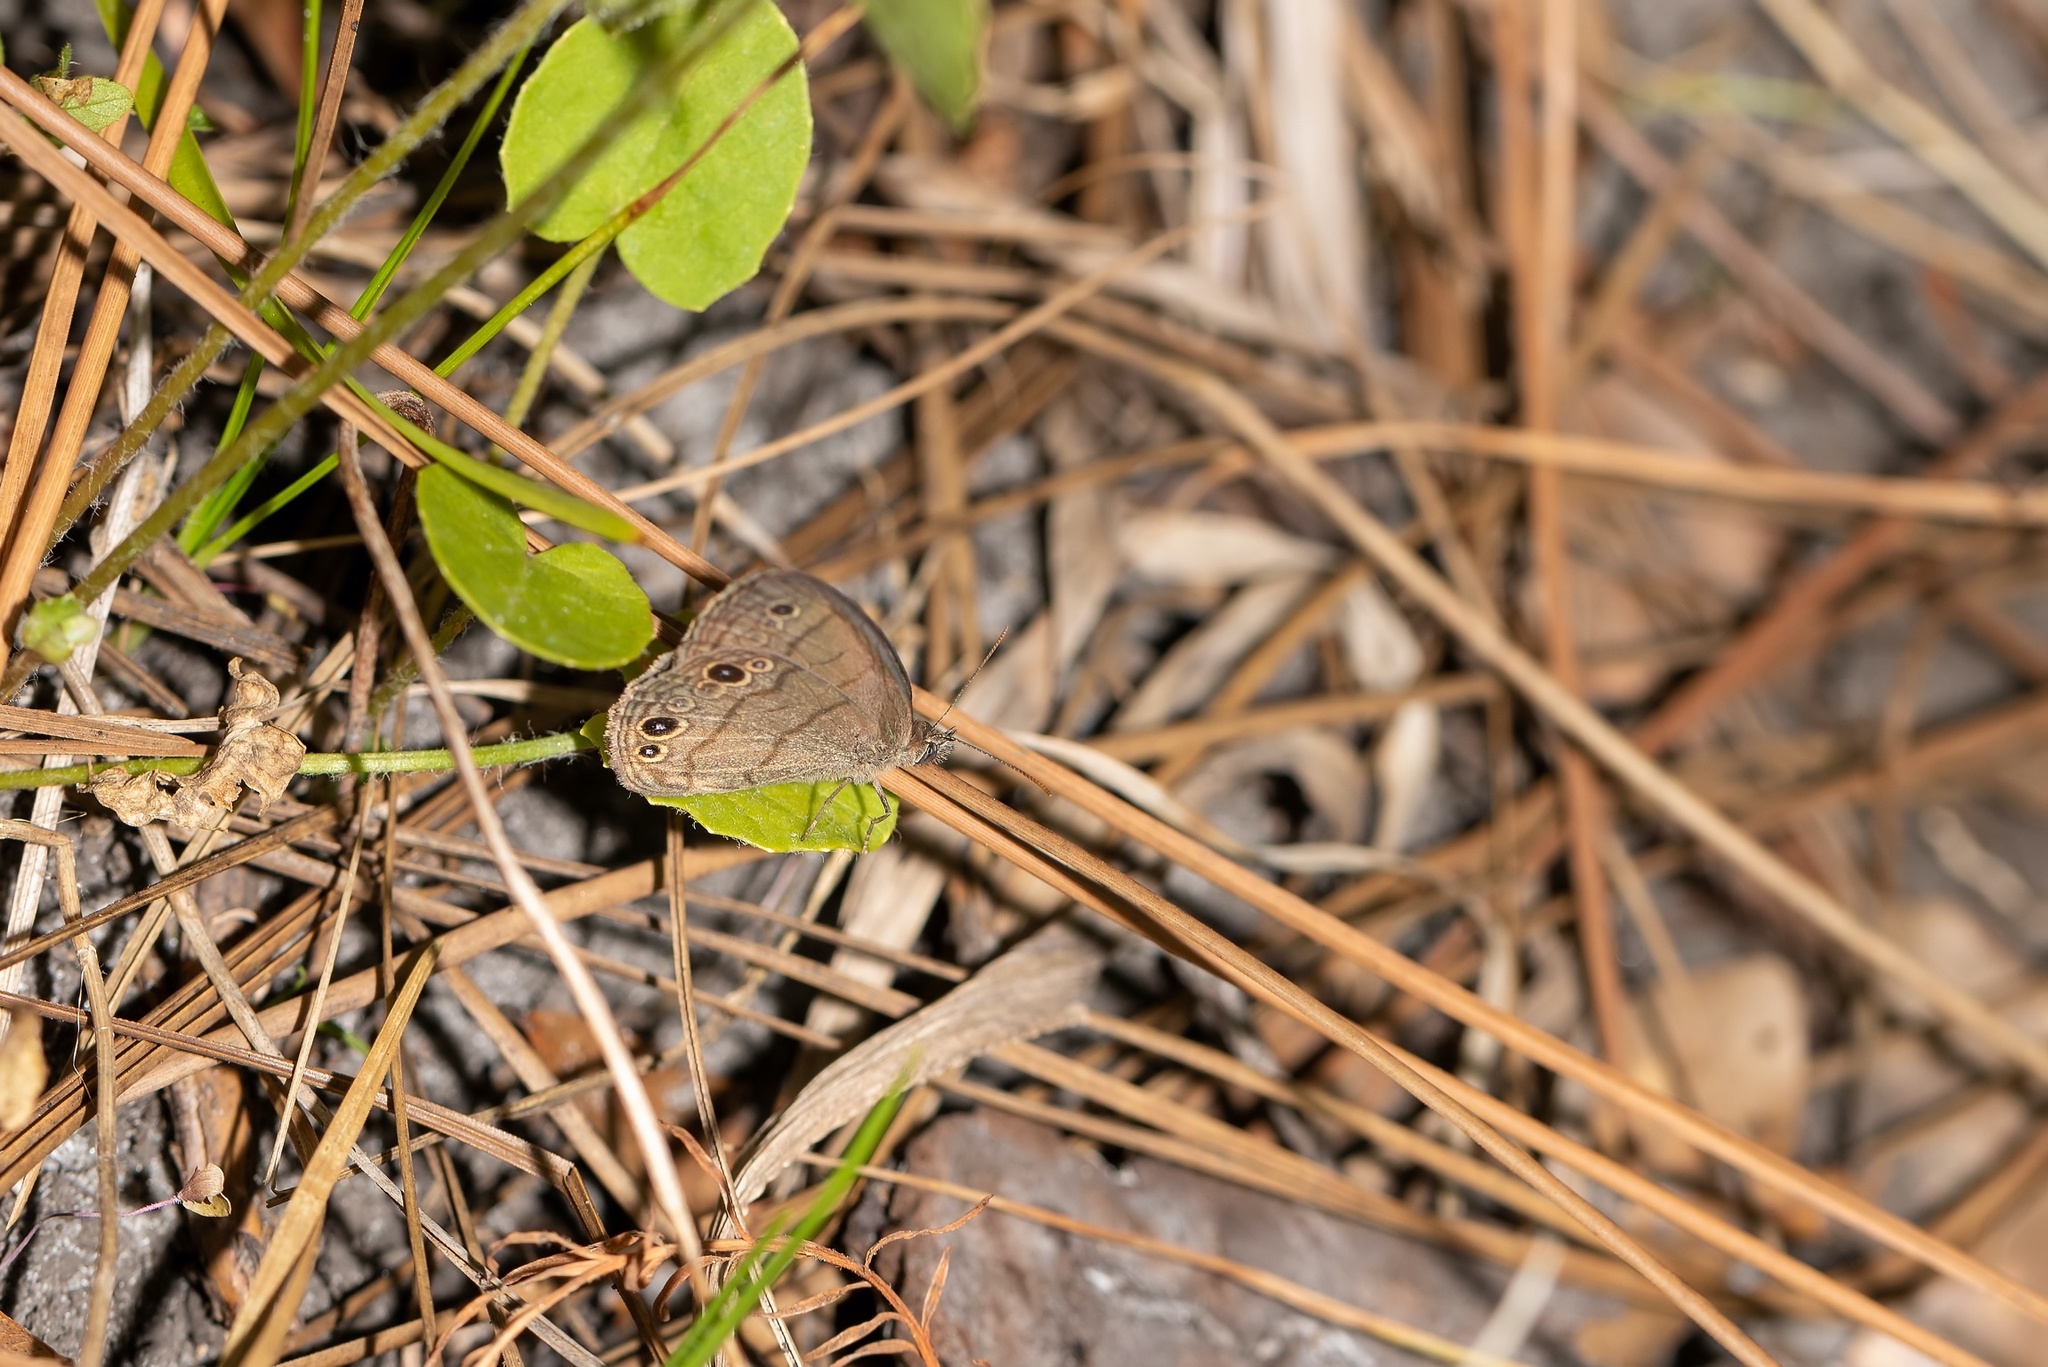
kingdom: Animalia
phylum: Arthropoda
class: Insecta
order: Lepidoptera
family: Nymphalidae
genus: Hermeuptychia
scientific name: Hermeuptychia hermes
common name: Hermes satyr
